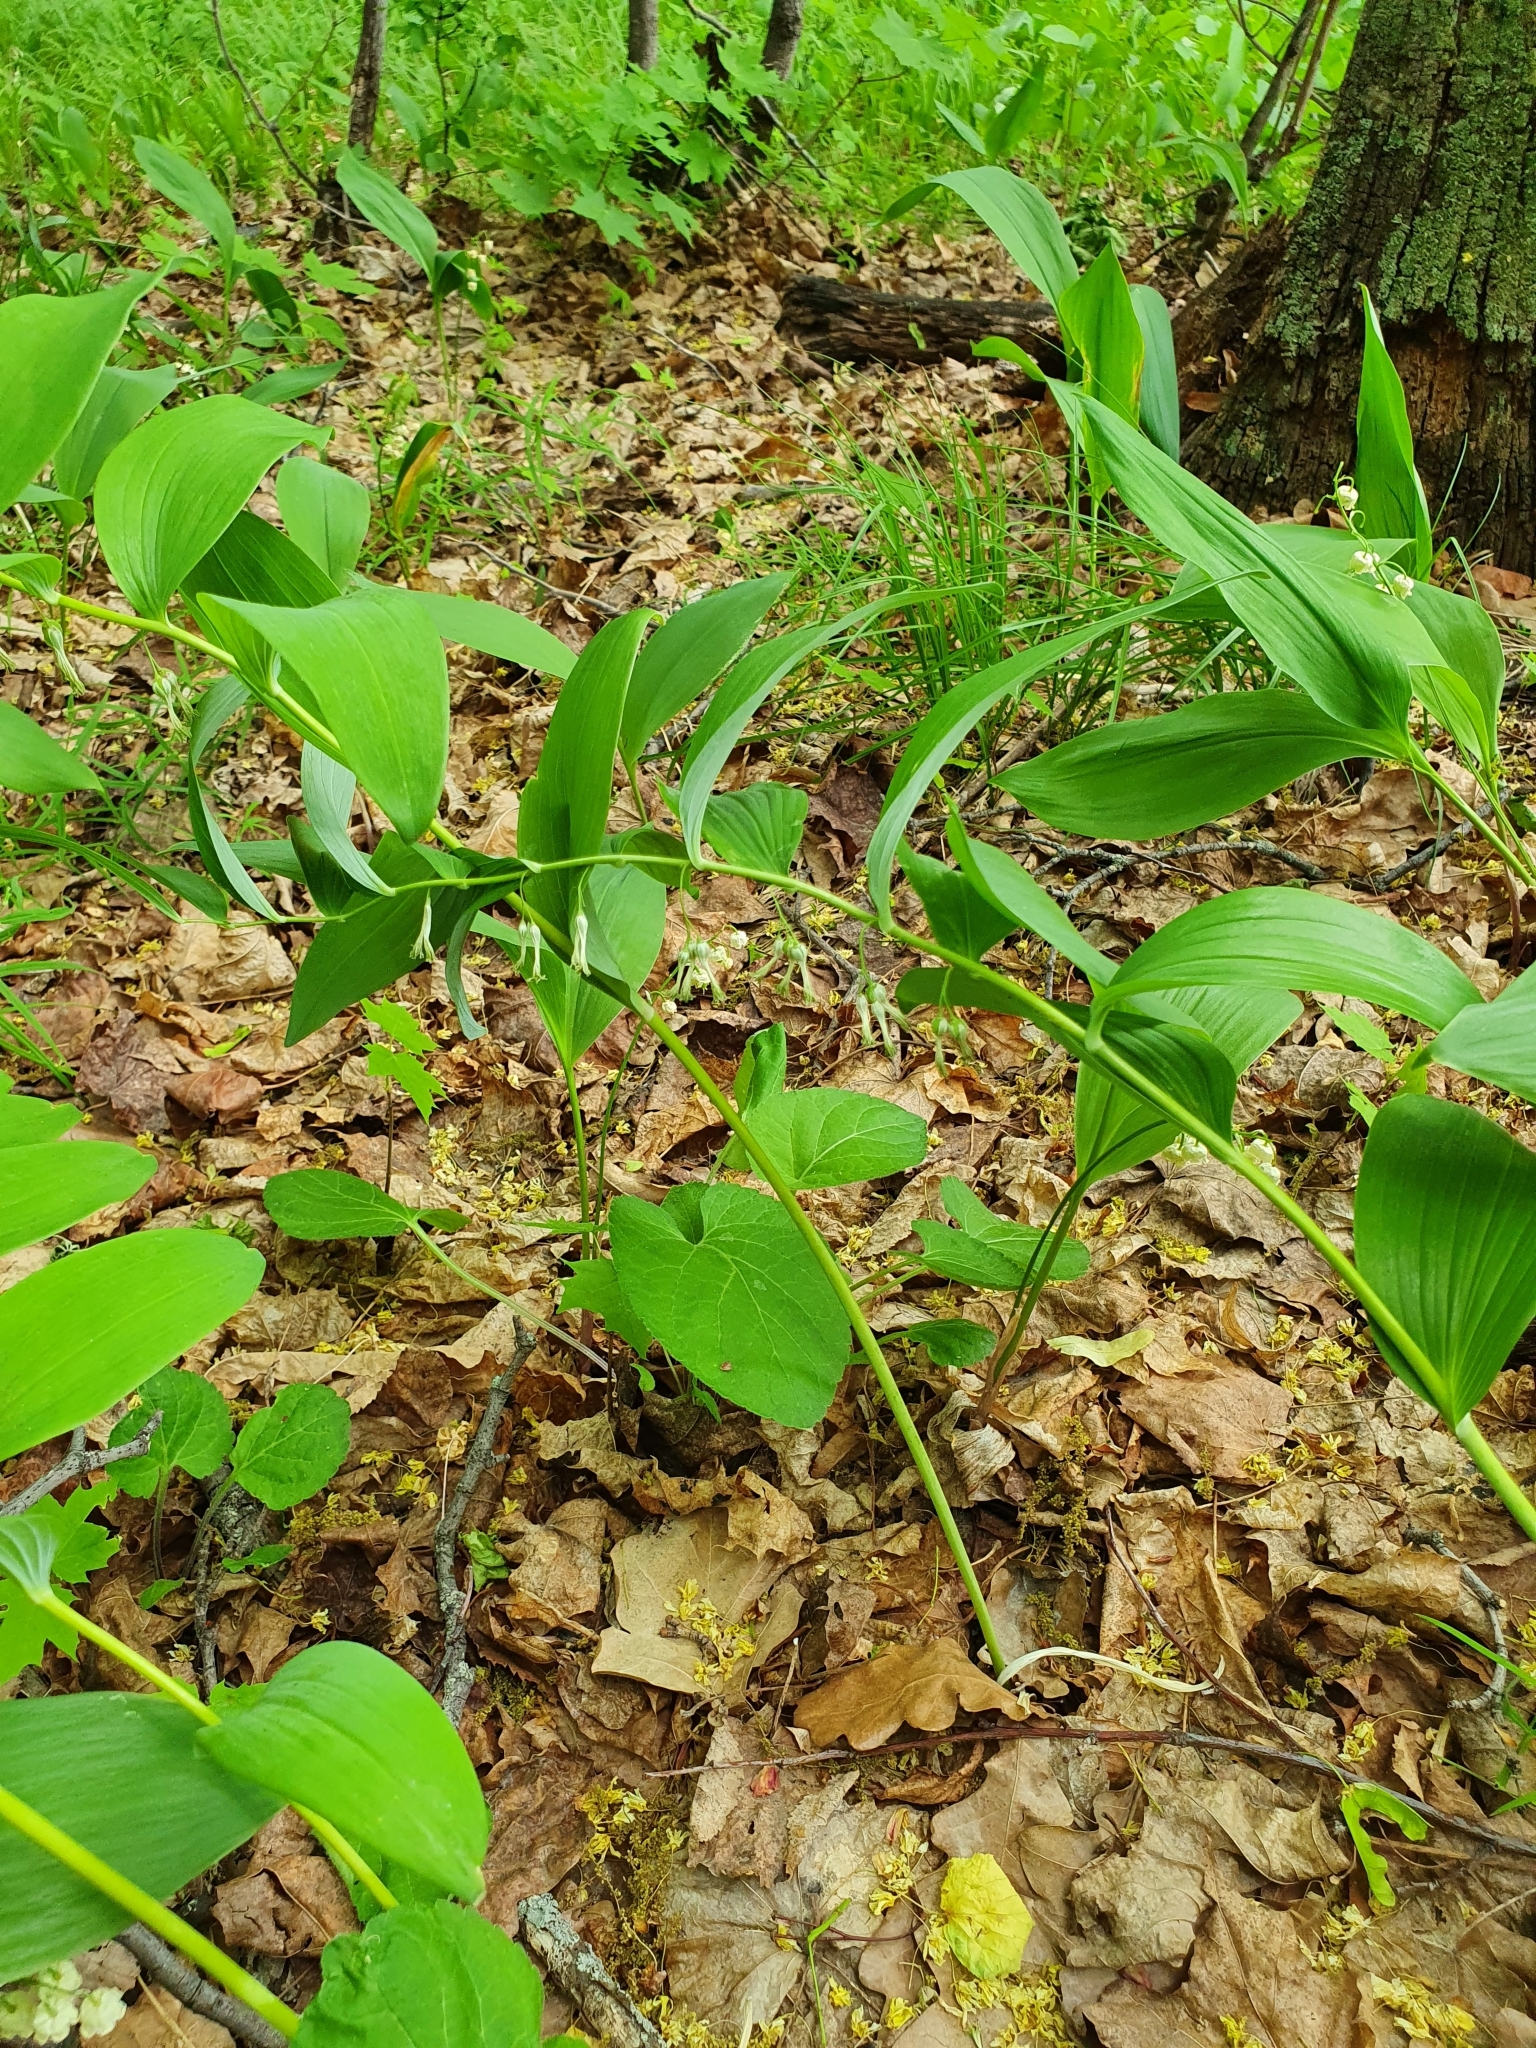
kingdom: Plantae
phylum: Tracheophyta
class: Liliopsida
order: Asparagales
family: Asparagaceae
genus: Polygonatum
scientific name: Polygonatum multiflorum
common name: Solomon's-seal
